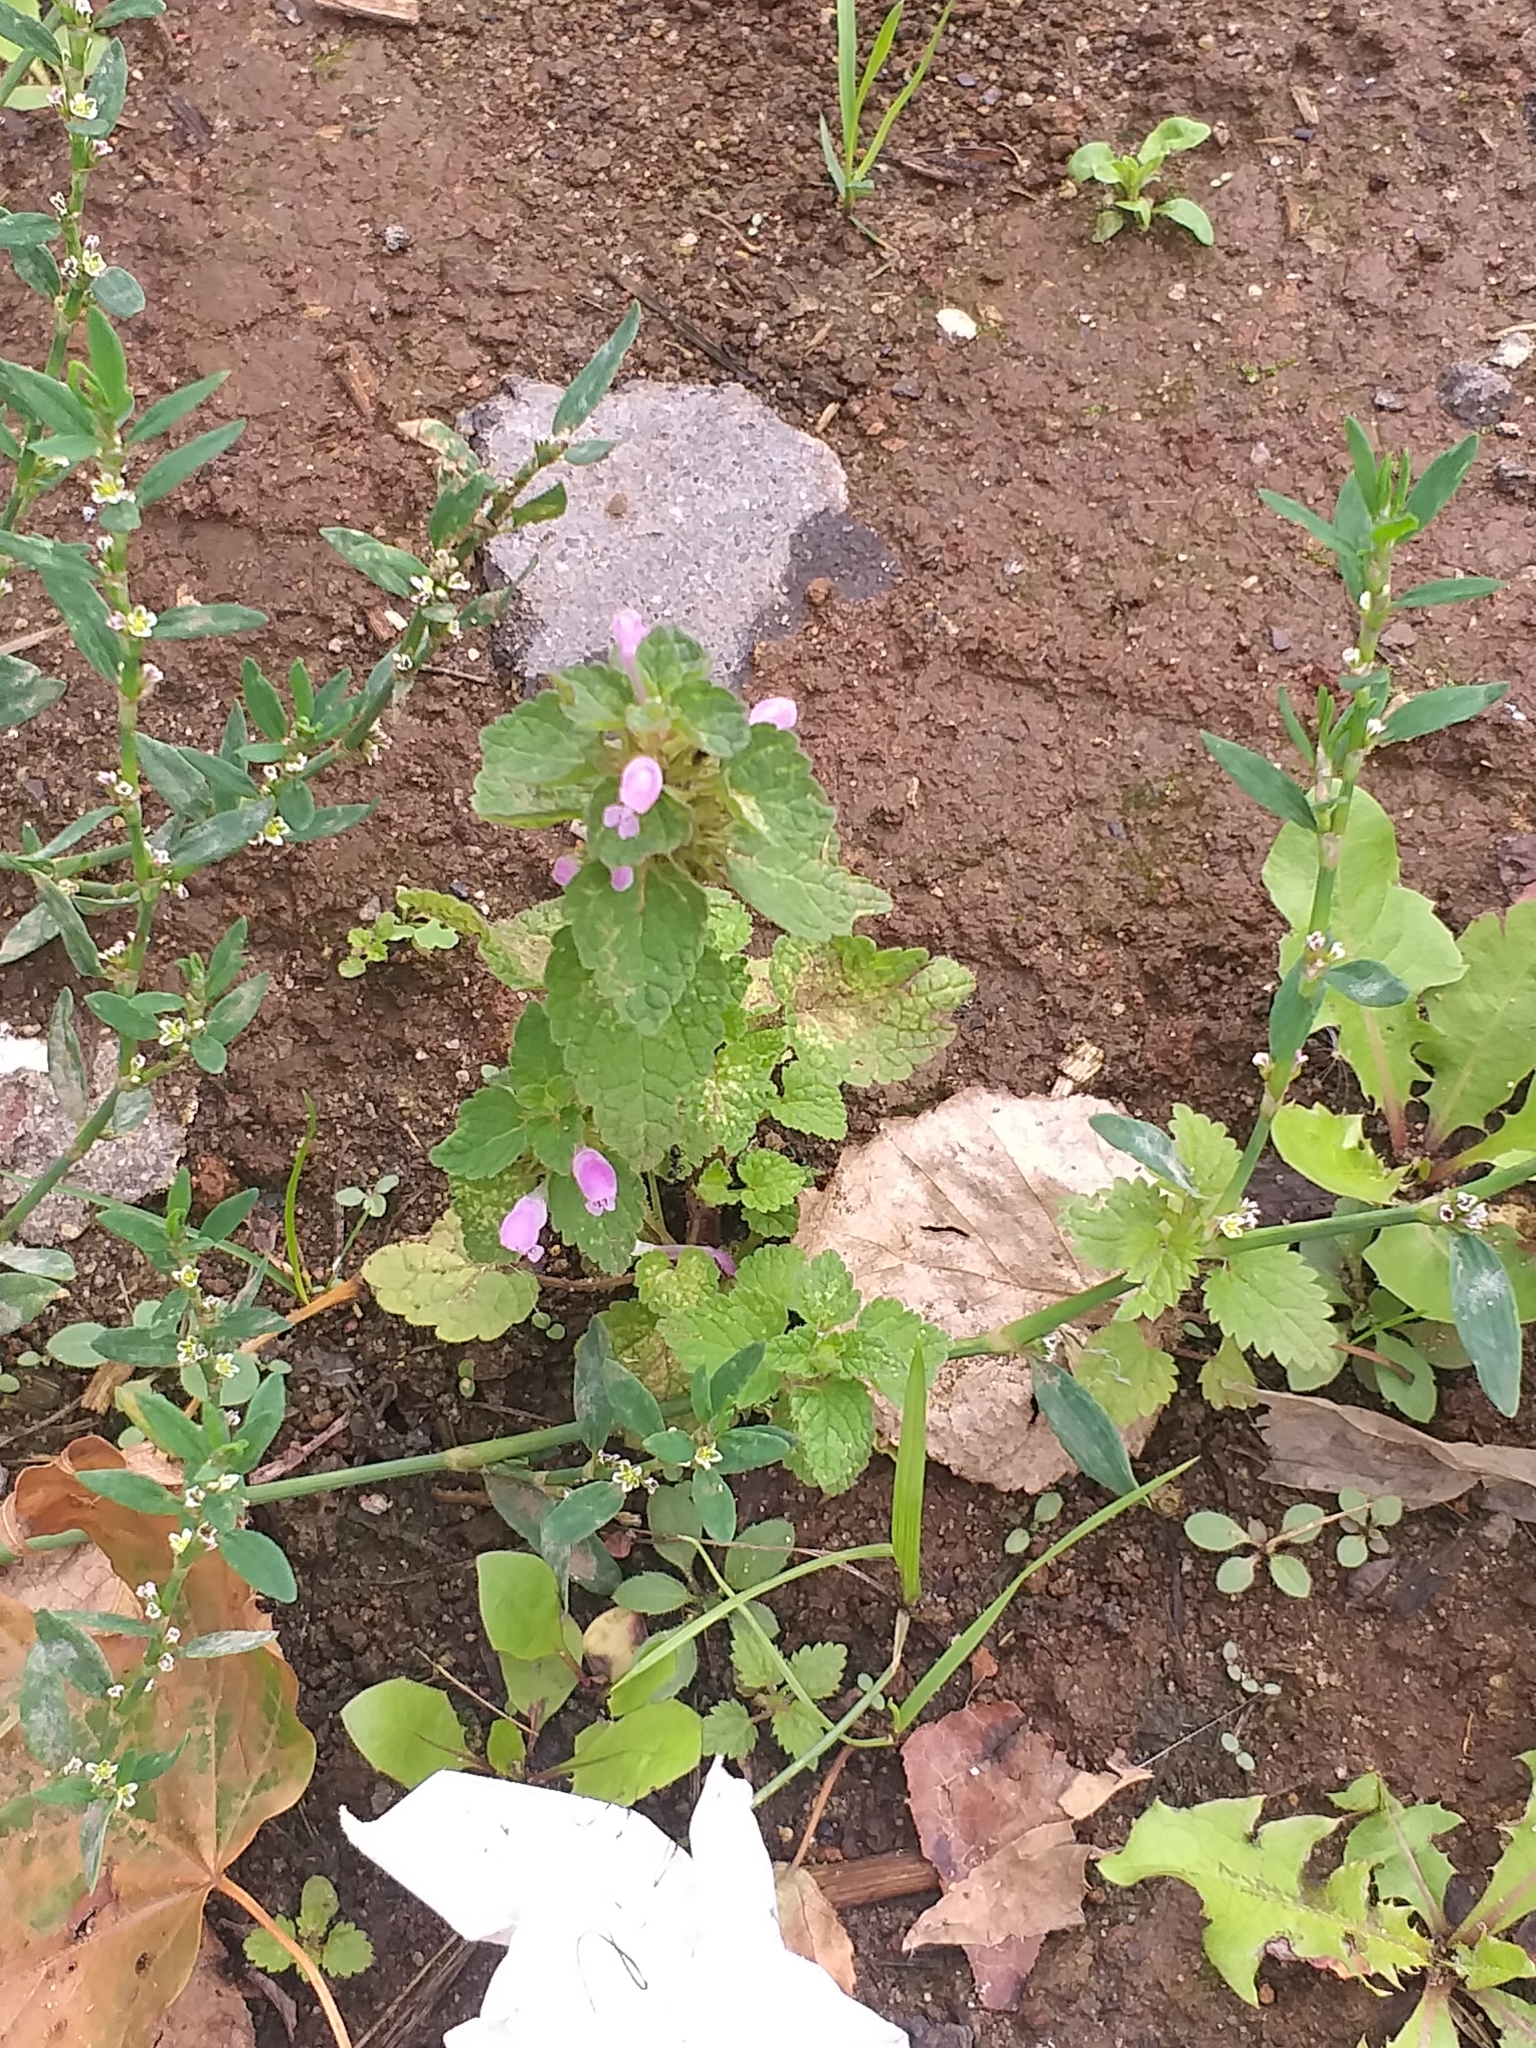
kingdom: Plantae
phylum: Tracheophyta
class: Magnoliopsida
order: Lamiales
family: Lamiaceae
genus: Lamium
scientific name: Lamium purpureum
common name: Red dead-nettle
